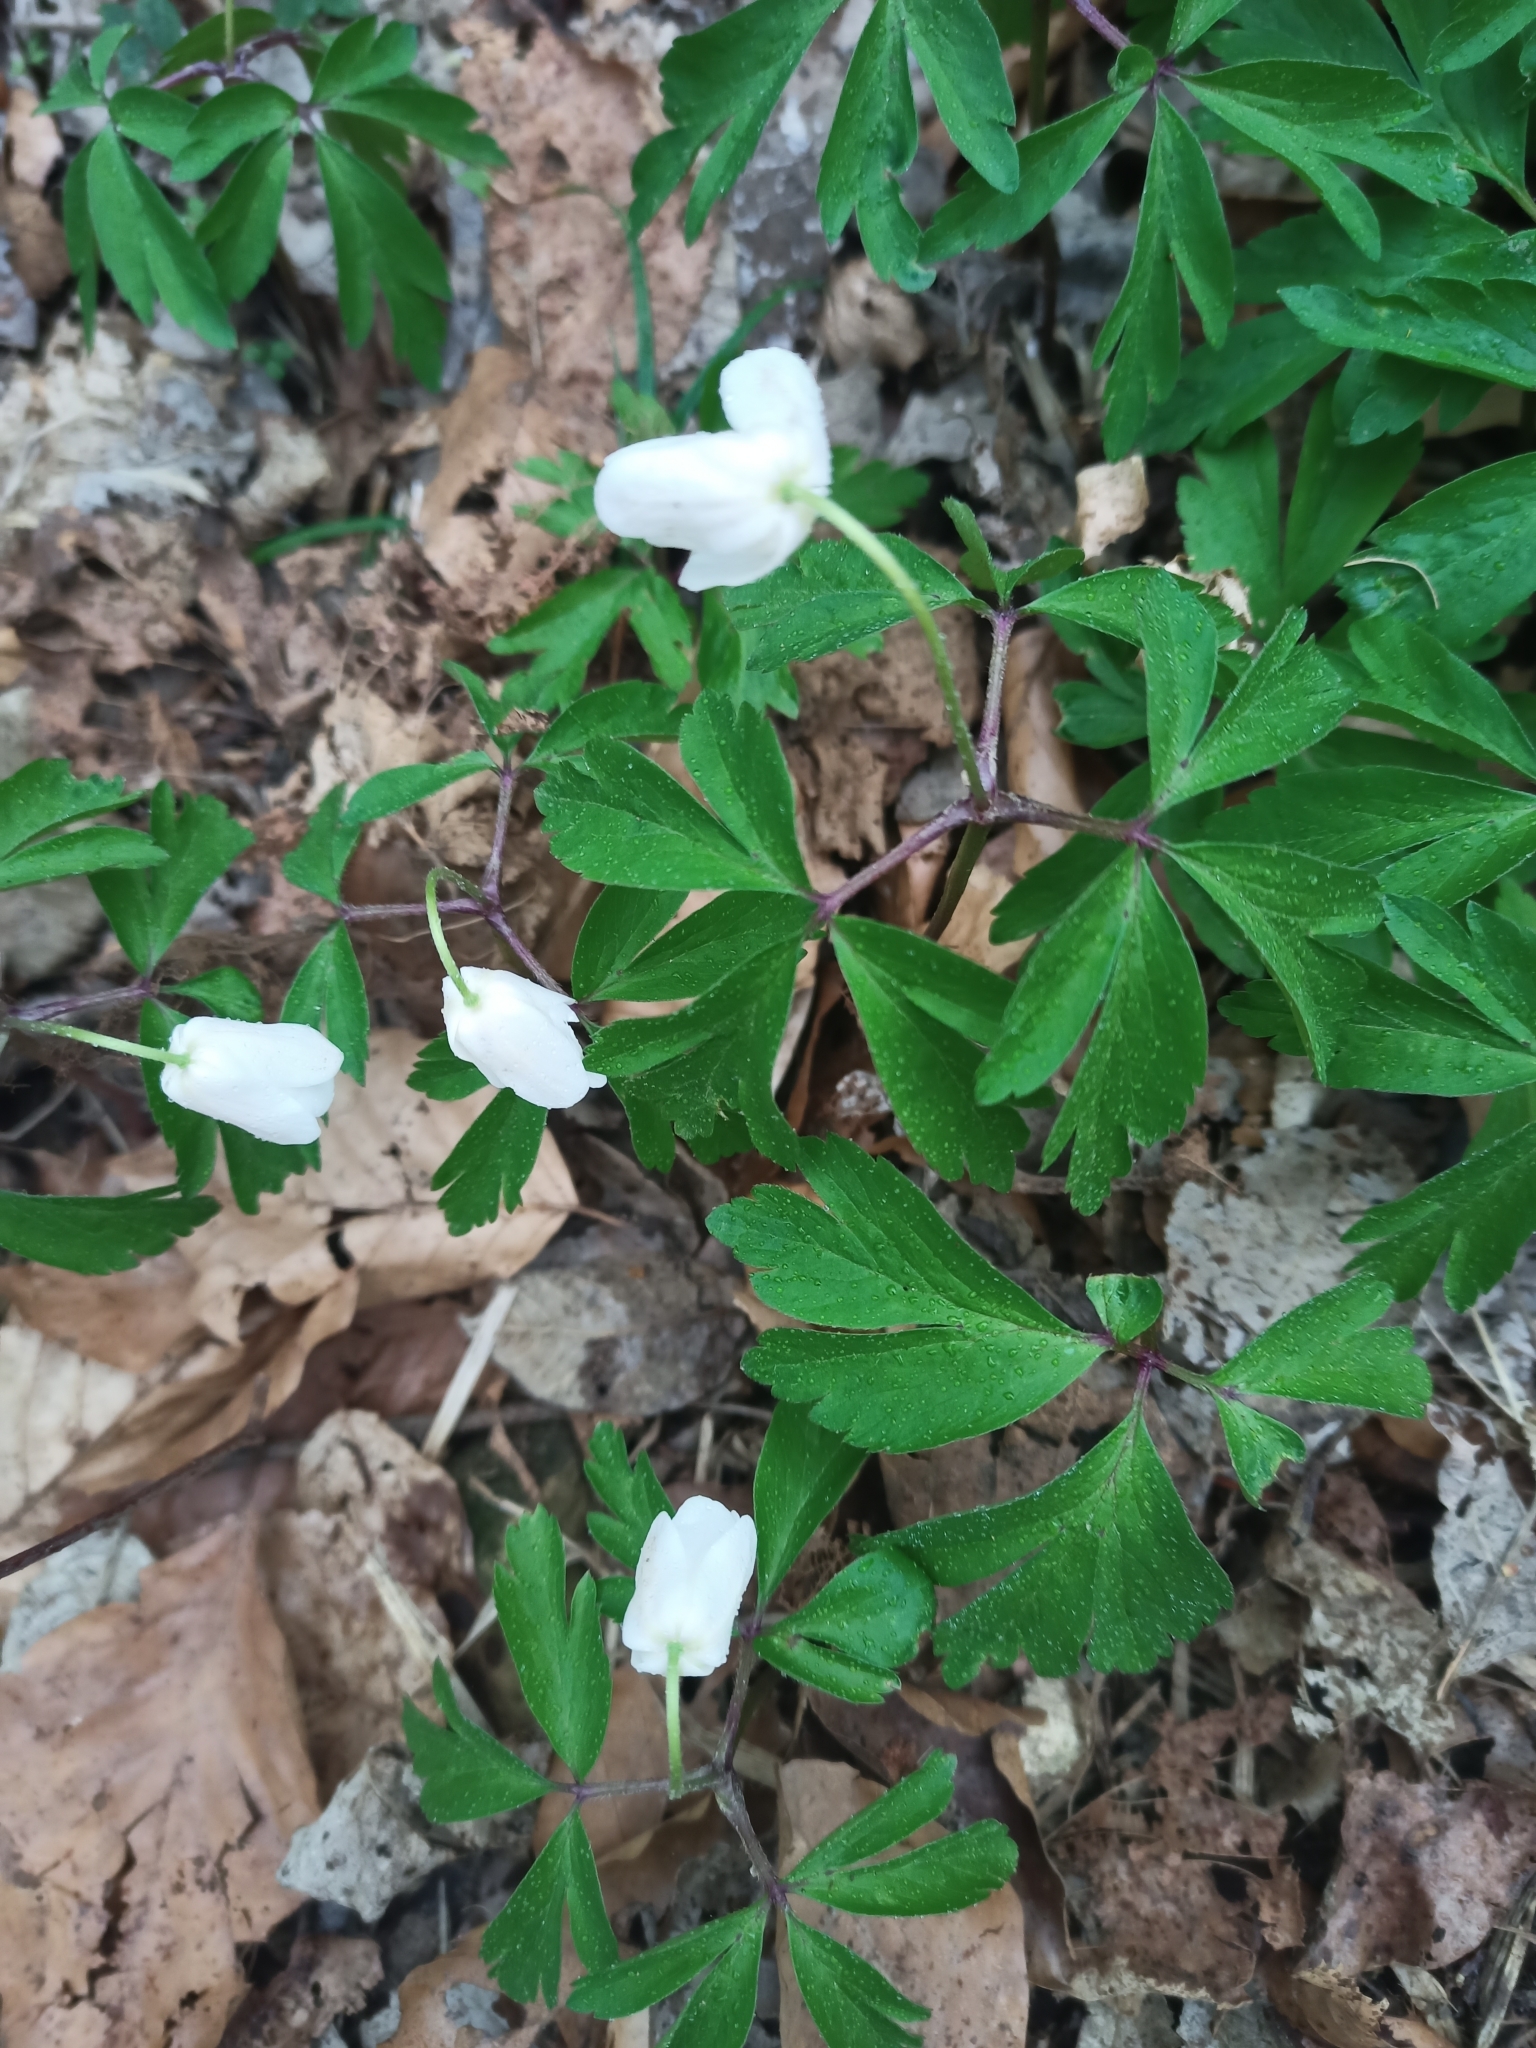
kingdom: Plantae
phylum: Tracheophyta
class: Magnoliopsida
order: Ranunculales
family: Ranunculaceae
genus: Anemone
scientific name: Anemone nemorosa
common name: Wood anemone
